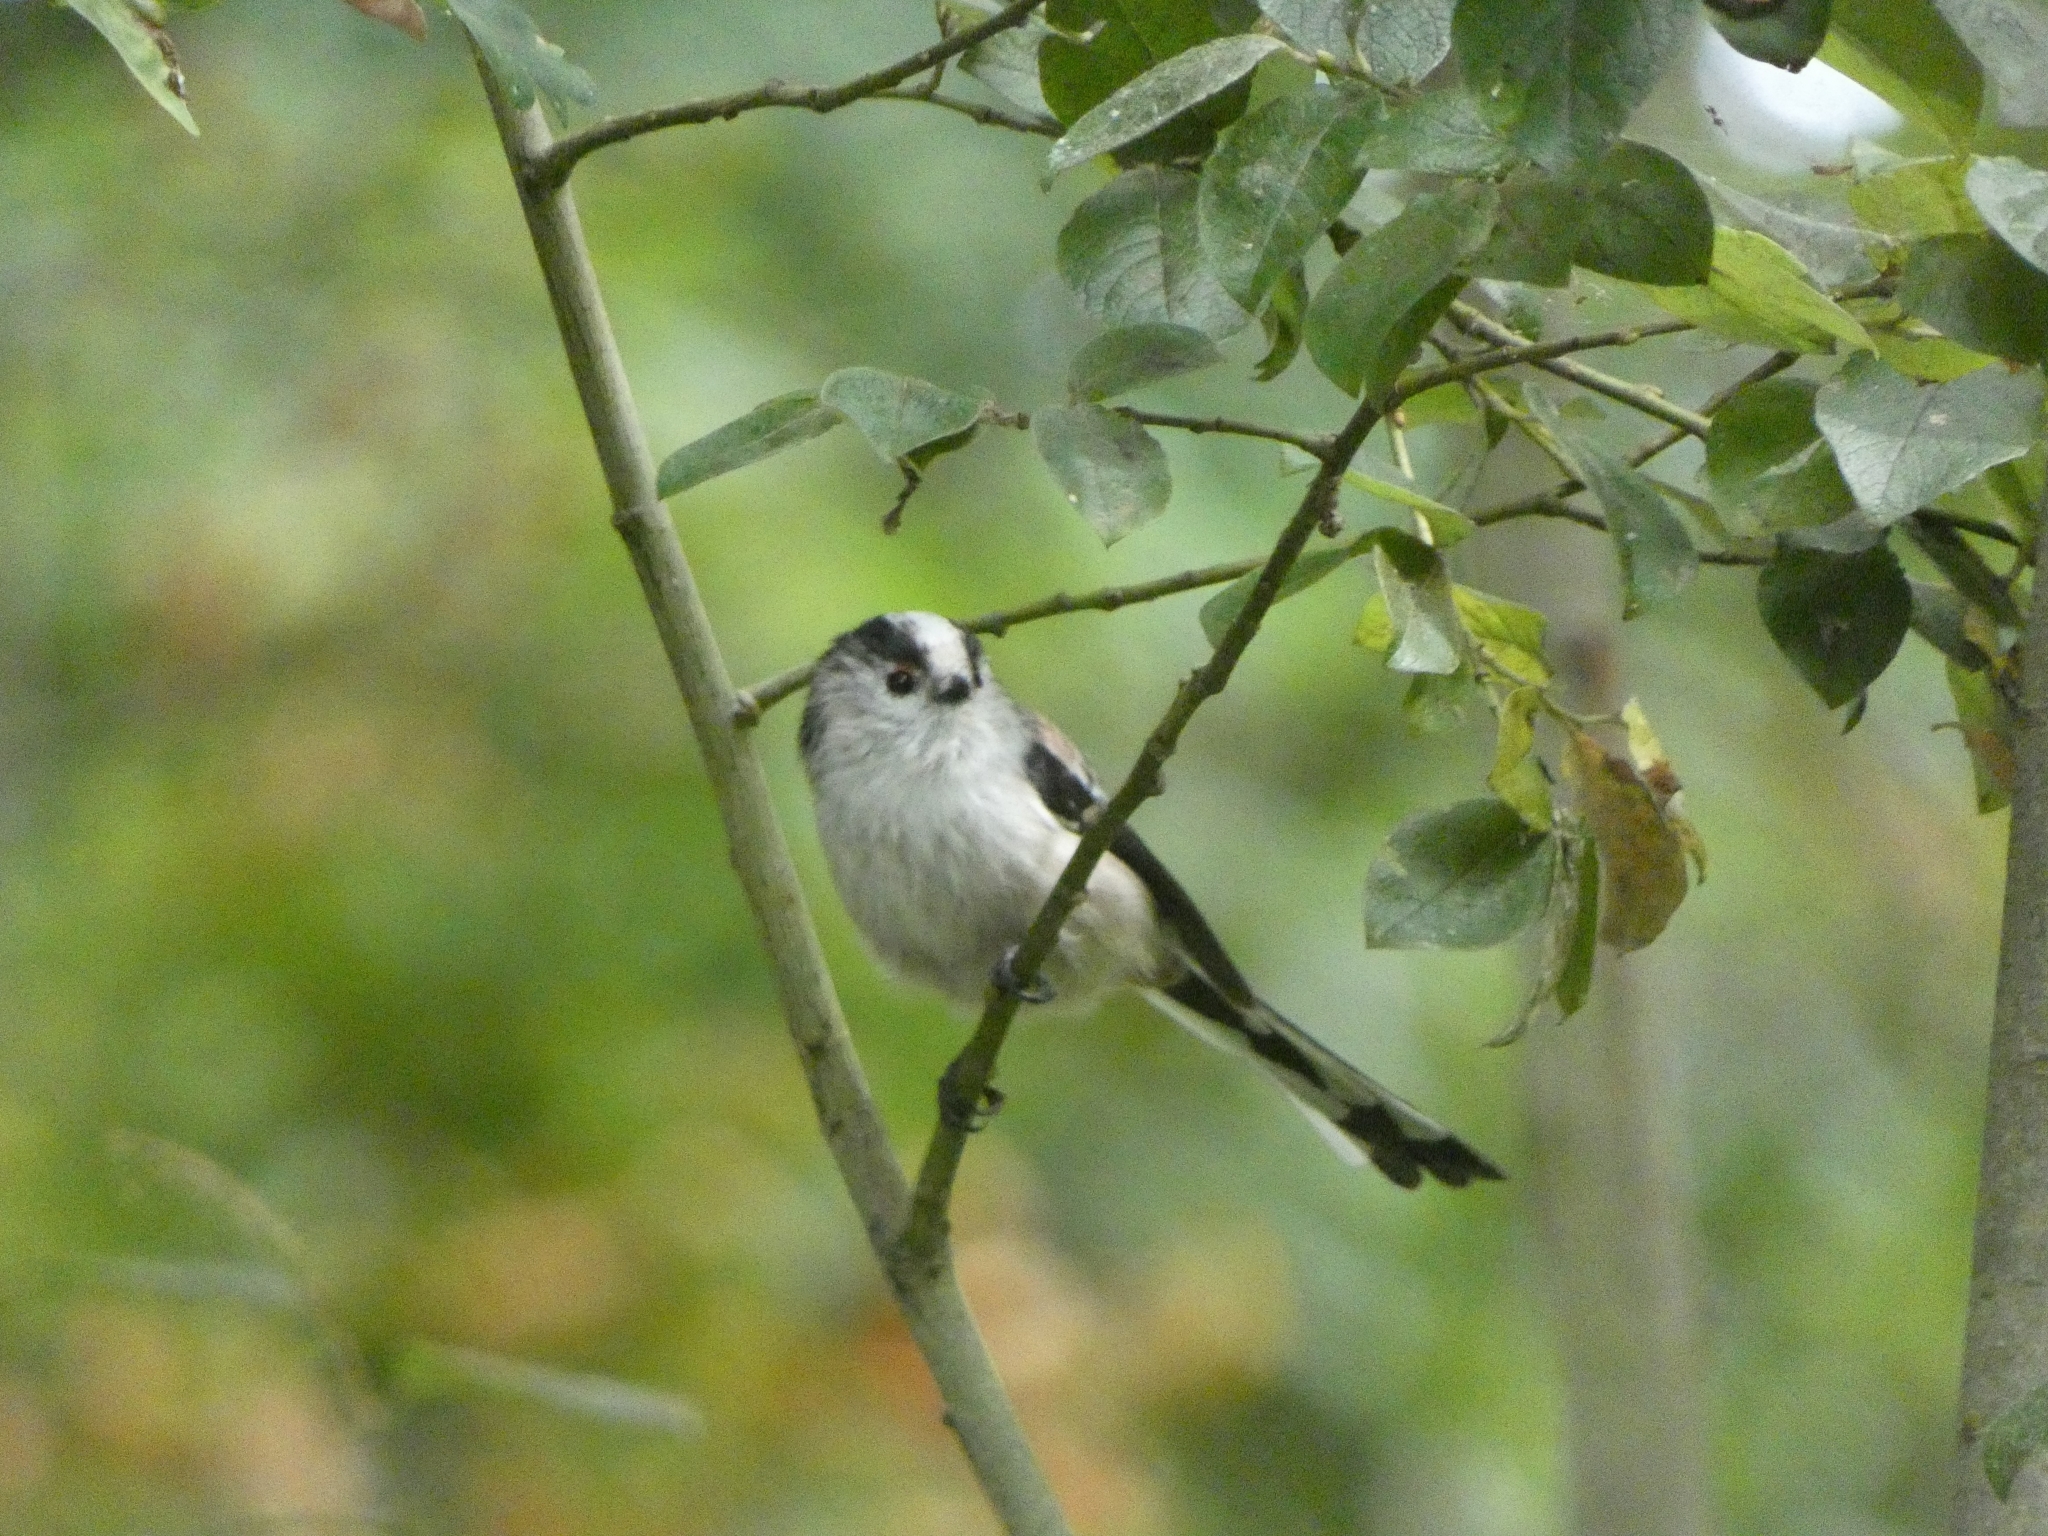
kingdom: Animalia
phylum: Chordata
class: Aves
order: Passeriformes
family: Aegithalidae
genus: Aegithalos
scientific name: Aegithalos caudatus
